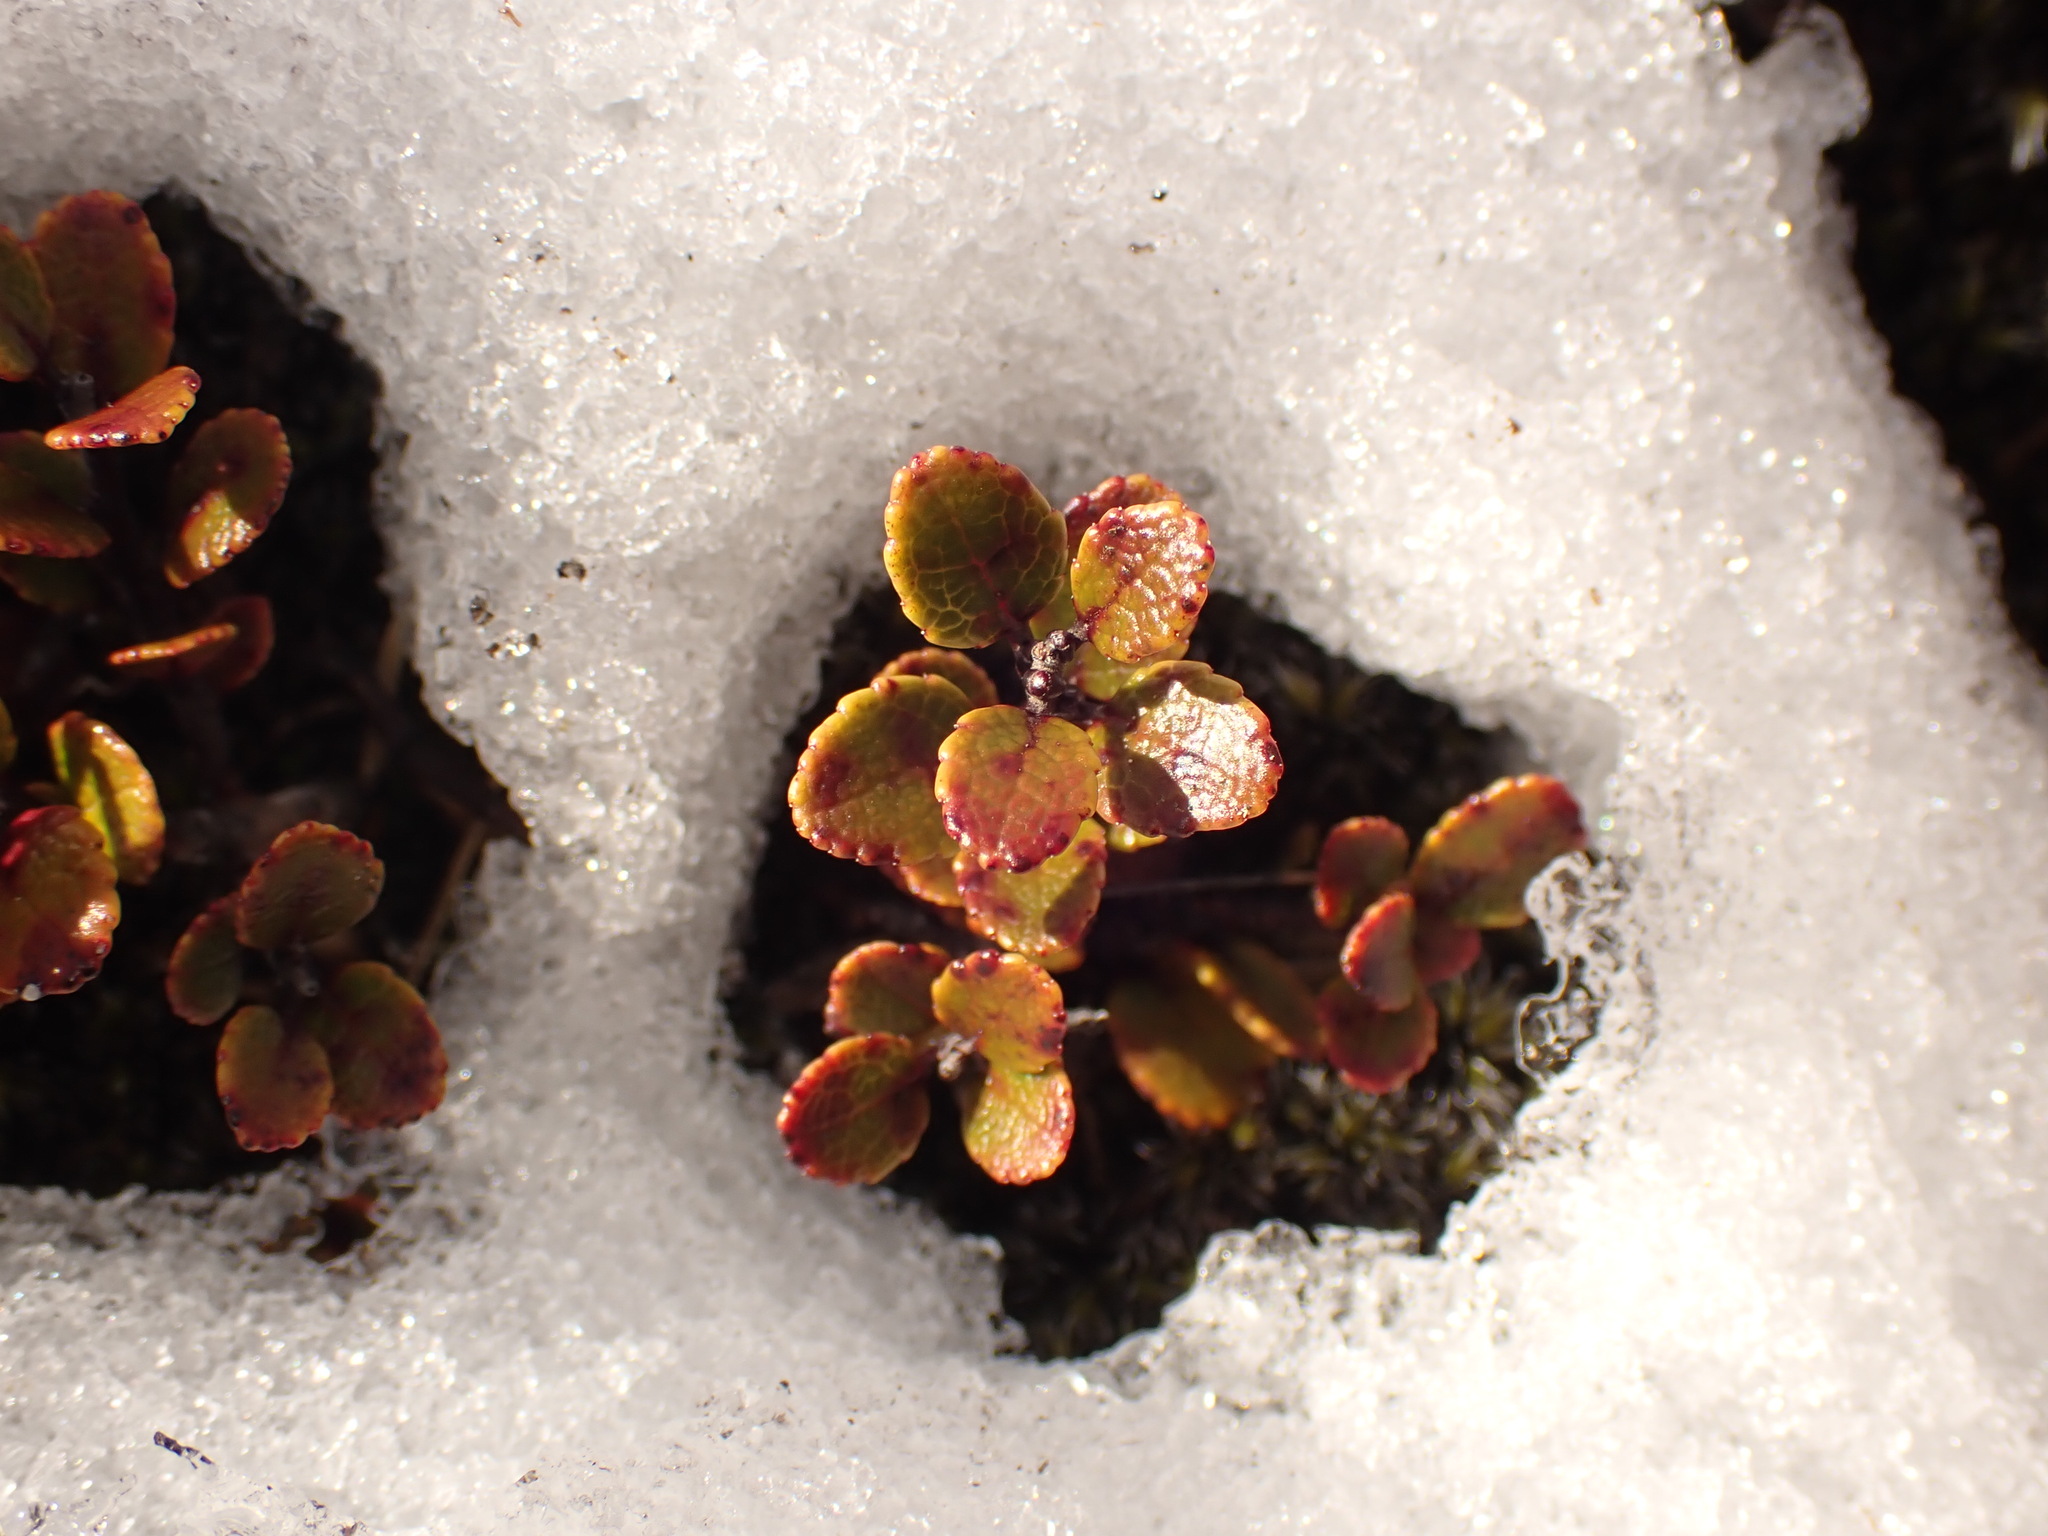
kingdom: Plantae
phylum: Tracheophyta
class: Magnoliopsida
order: Ericales
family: Ericaceae
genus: Gaultheria
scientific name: Gaultheria depressa
